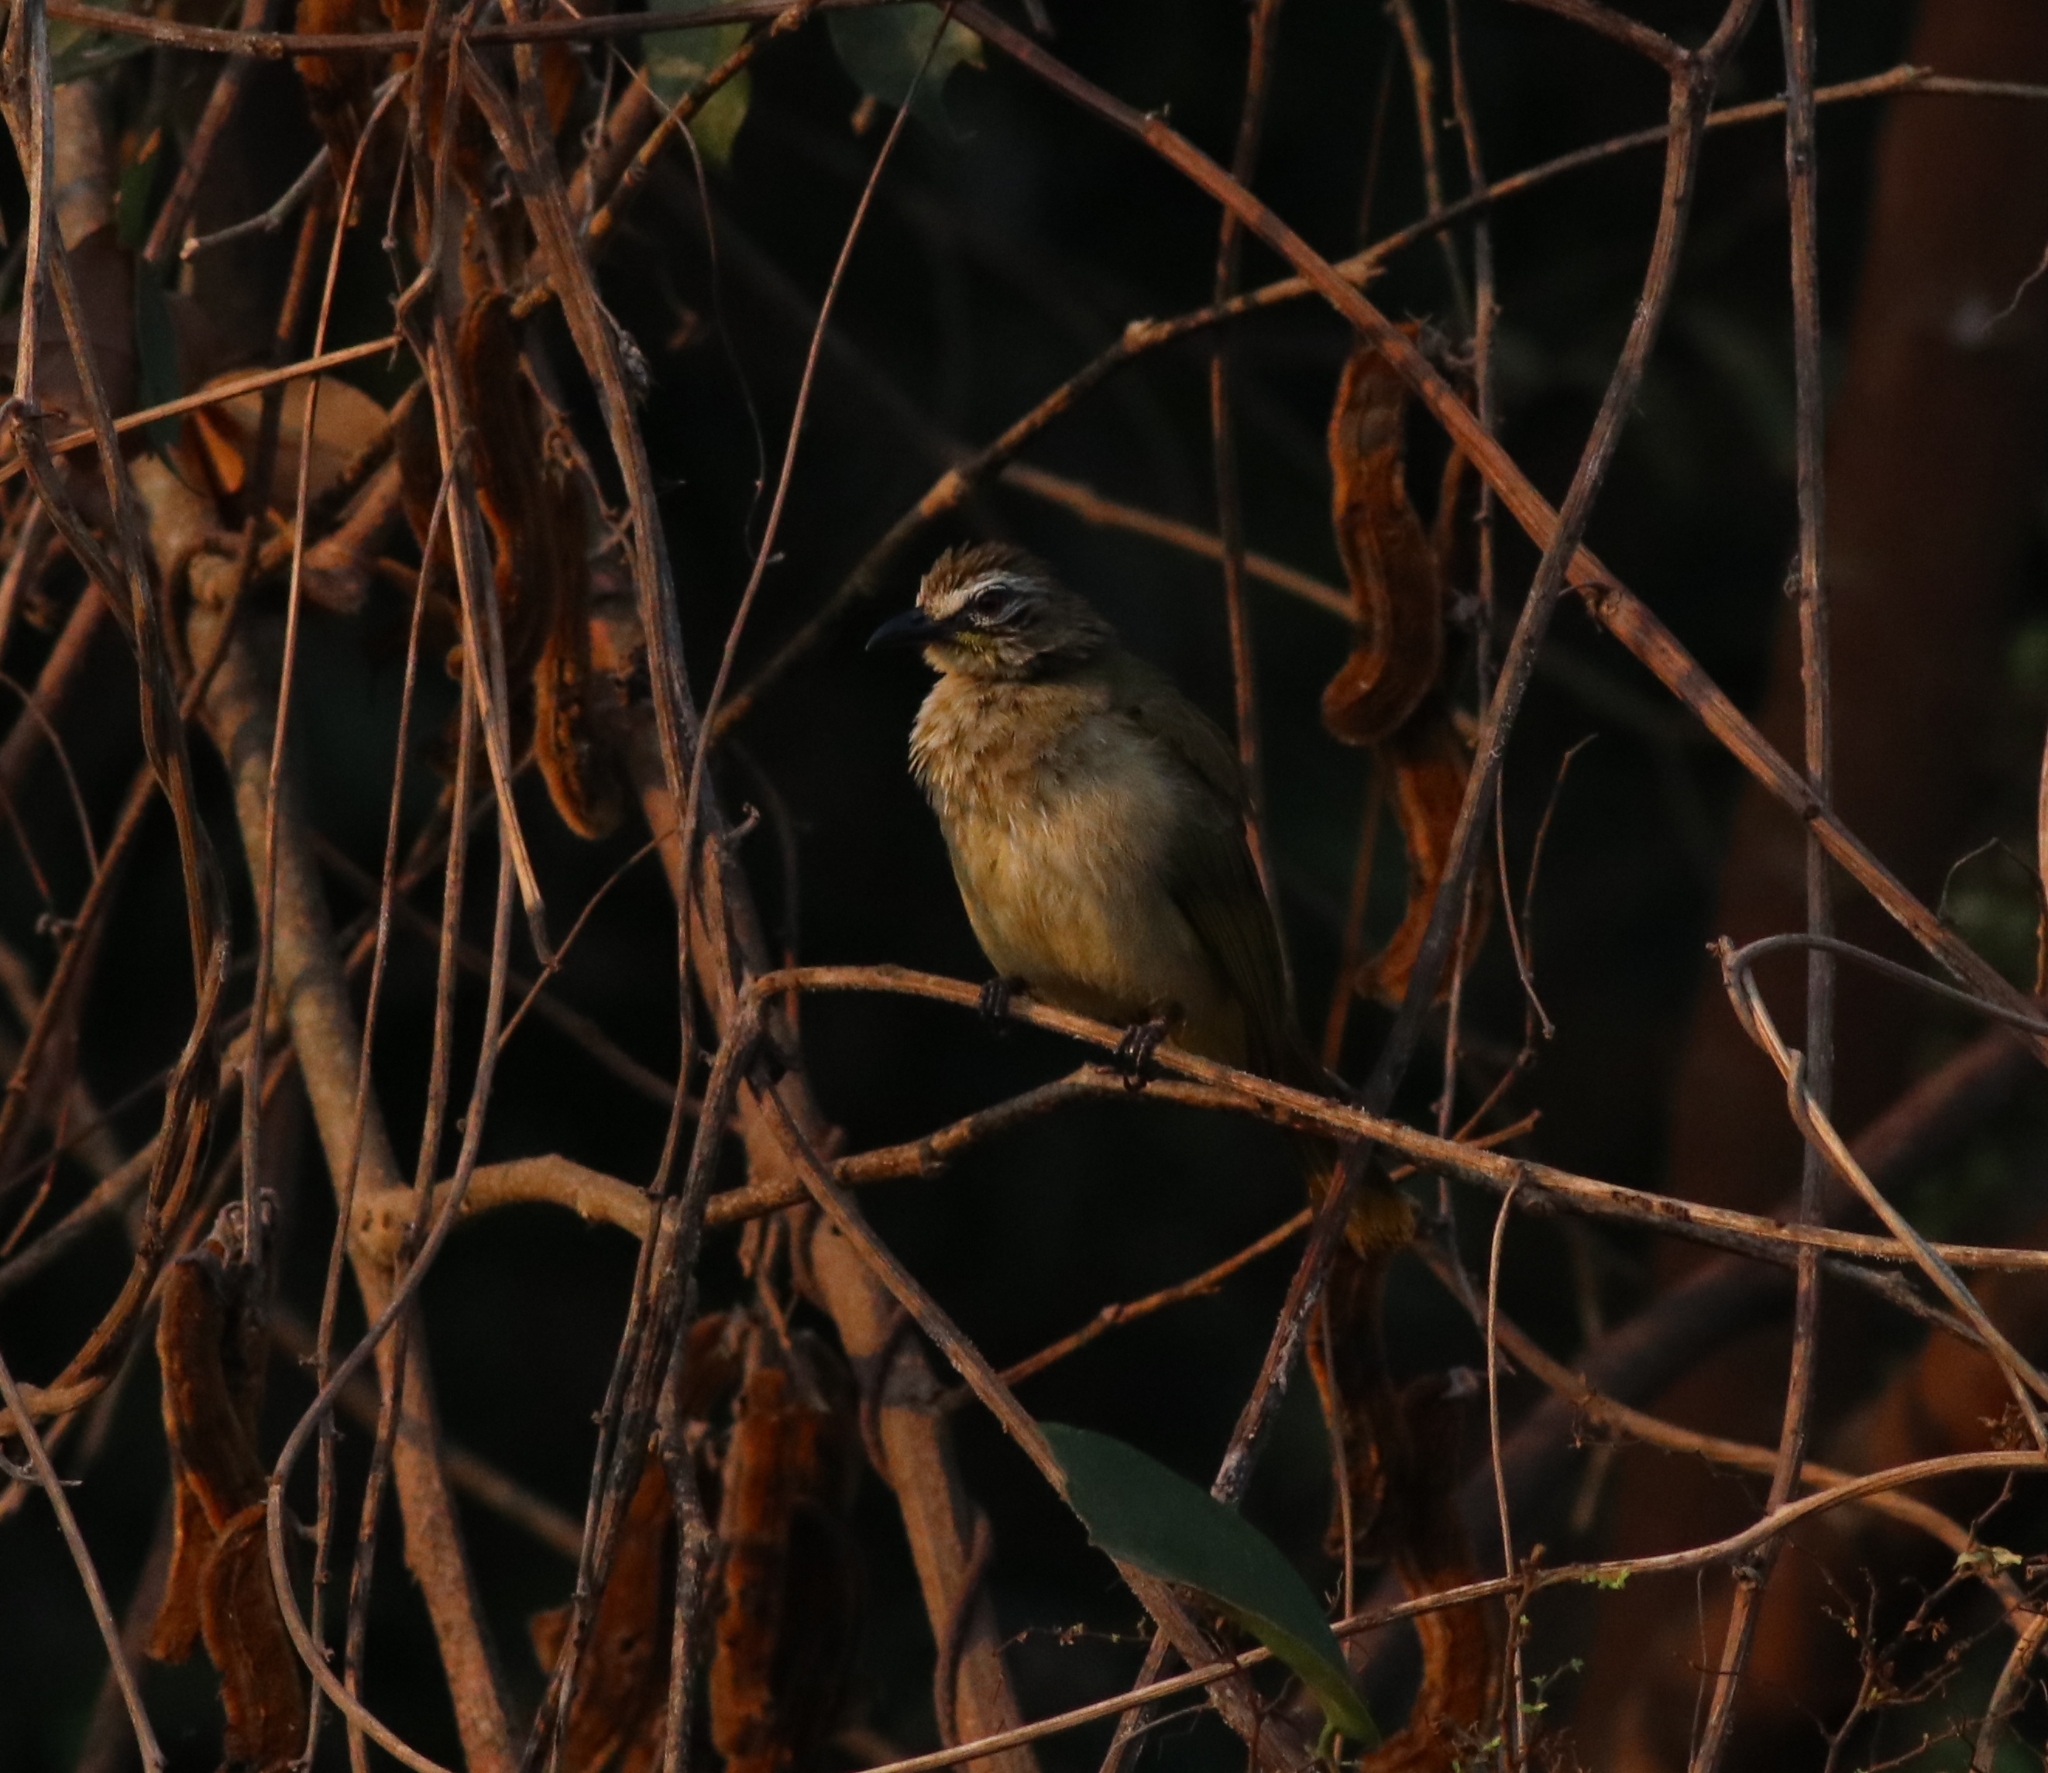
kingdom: Animalia
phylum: Chordata
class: Aves
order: Passeriformes
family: Pycnonotidae
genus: Pycnonotus
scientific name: Pycnonotus luteolus
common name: White-browed bulbul
